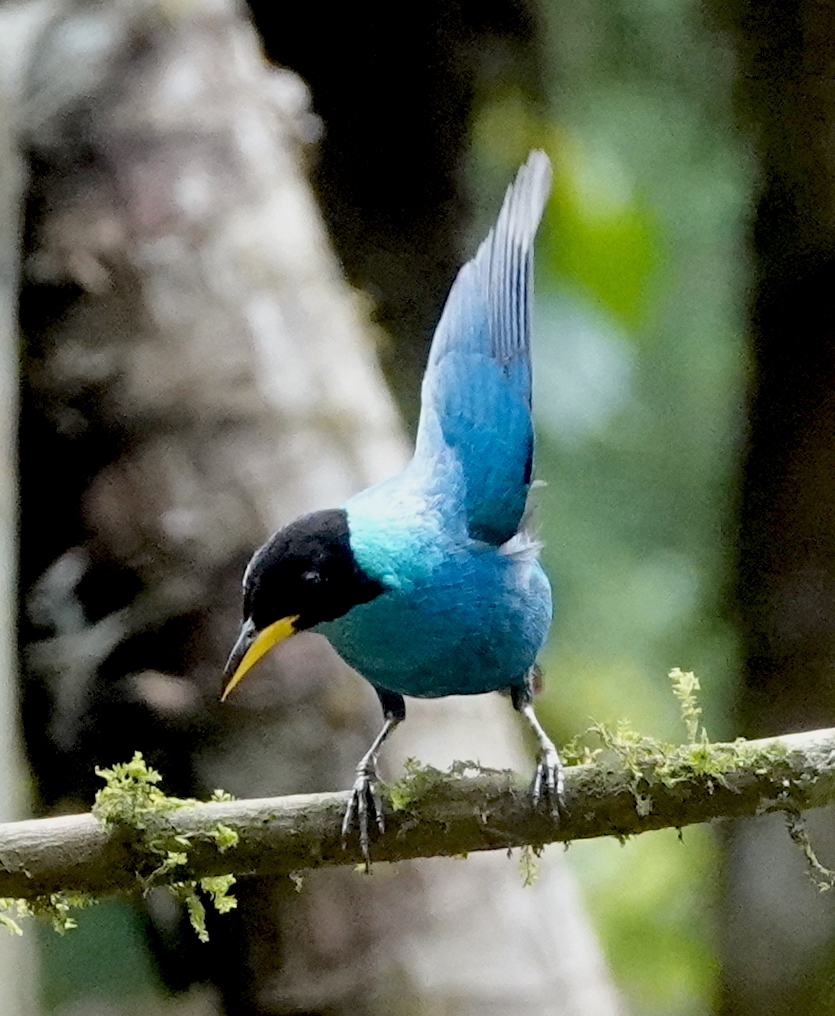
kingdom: Animalia
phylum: Chordata
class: Aves
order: Passeriformes
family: Thraupidae
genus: Chlorophanes
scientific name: Chlorophanes spiza
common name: Green honeycreeper
